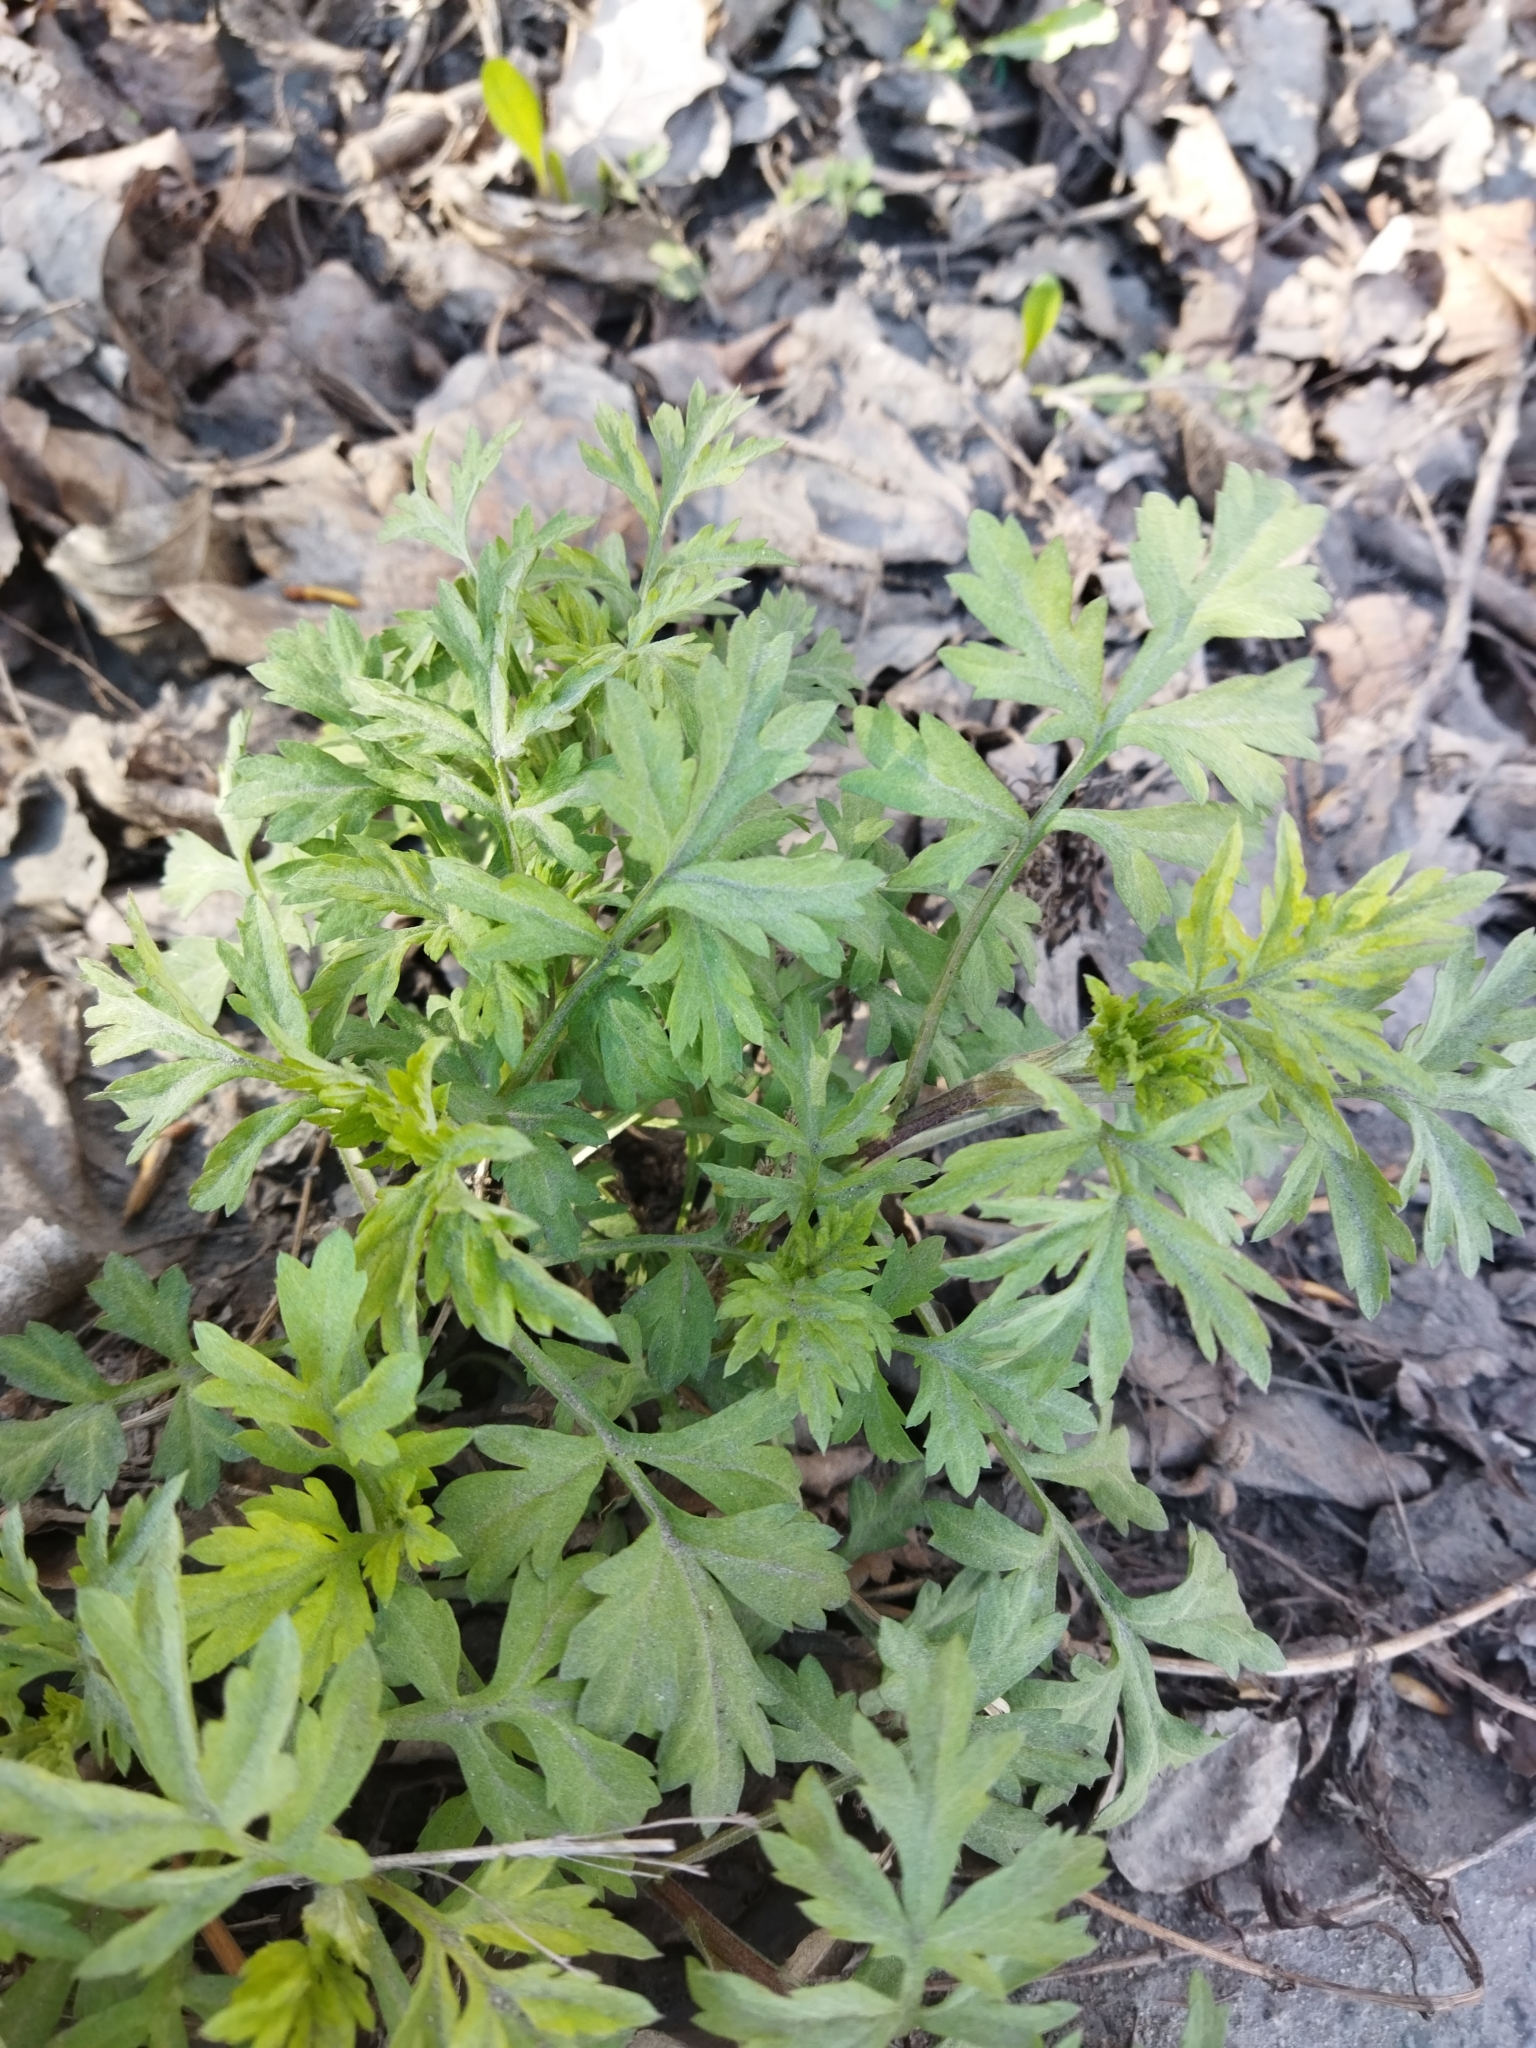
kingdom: Plantae
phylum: Tracheophyta
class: Magnoliopsida
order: Asterales
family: Asteraceae
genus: Artemisia
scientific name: Artemisia vulgaris
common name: Mugwort
